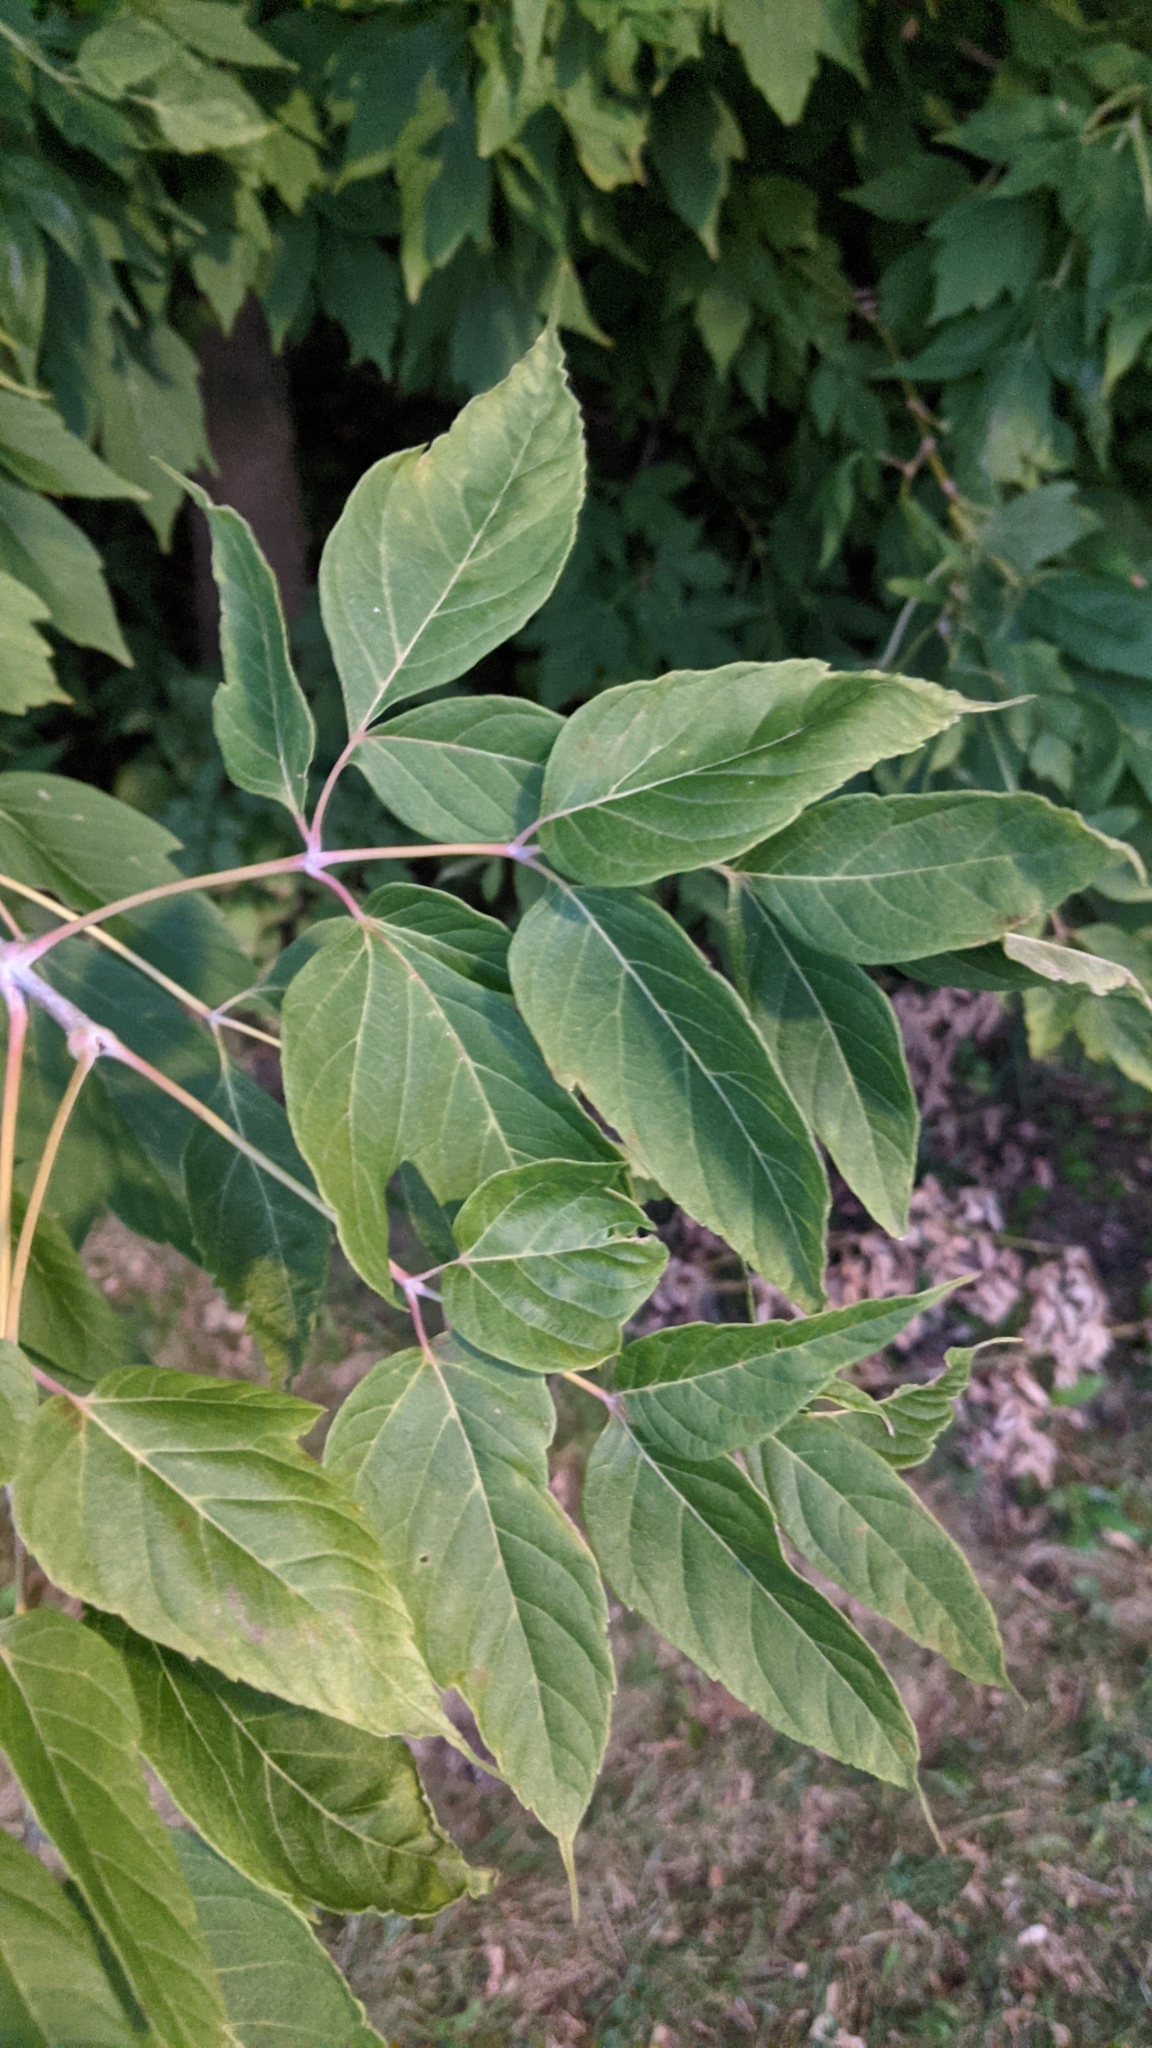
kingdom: Plantae
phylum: Tracheophyta
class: Magnoliopsida
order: Sapindales
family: Sapindaceae
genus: Acer
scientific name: Acer negundo
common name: Ashleaf maple
